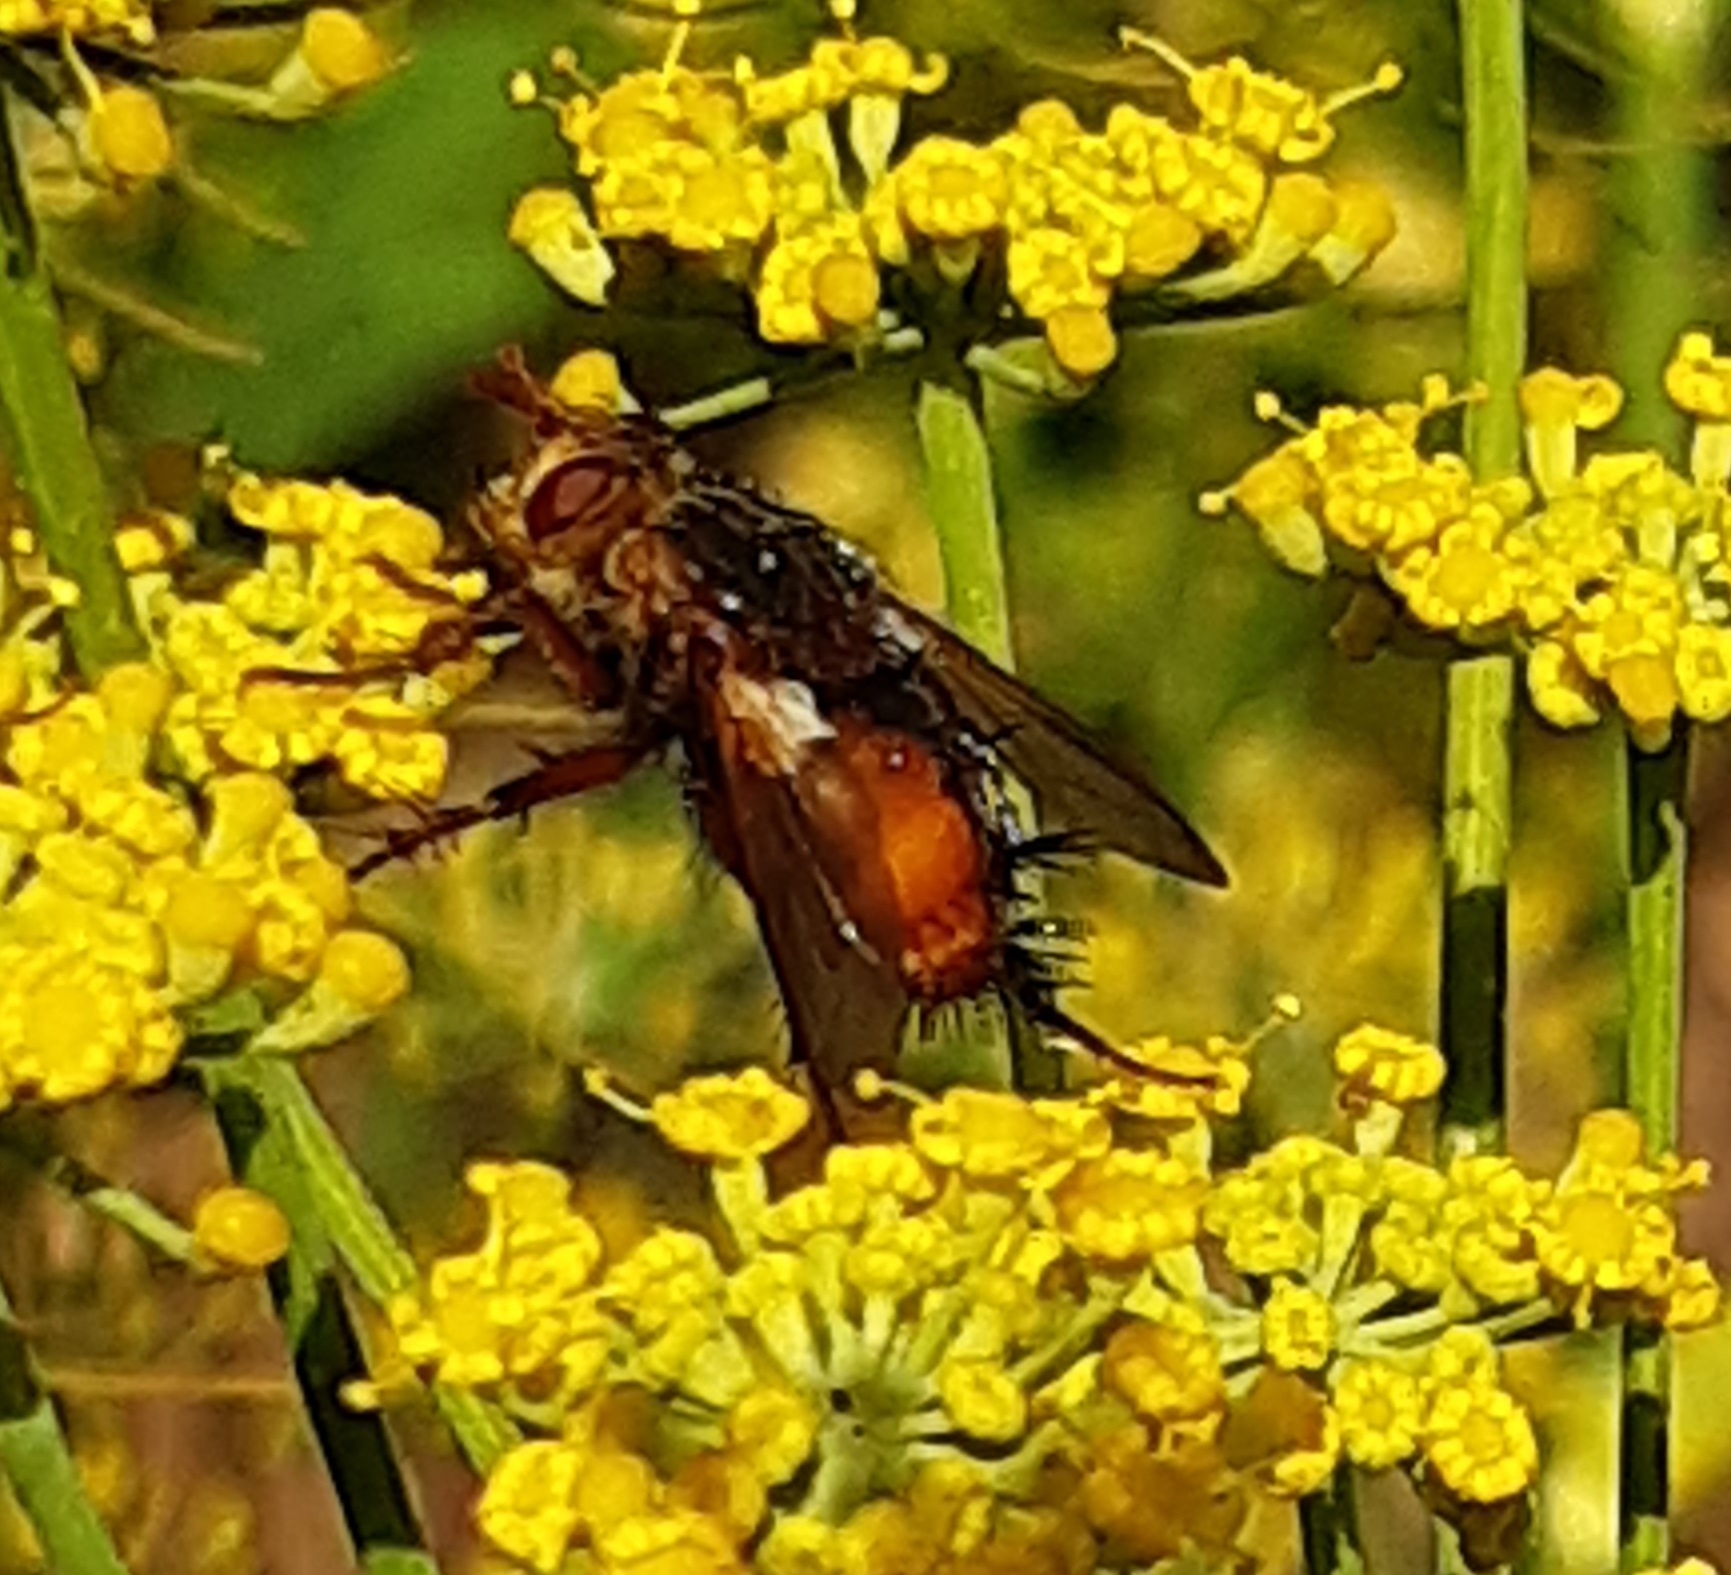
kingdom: Animalia
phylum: Arthropoda
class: Insecta
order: Diptera
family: Tachinidae
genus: Tachina
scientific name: Tachina fera
